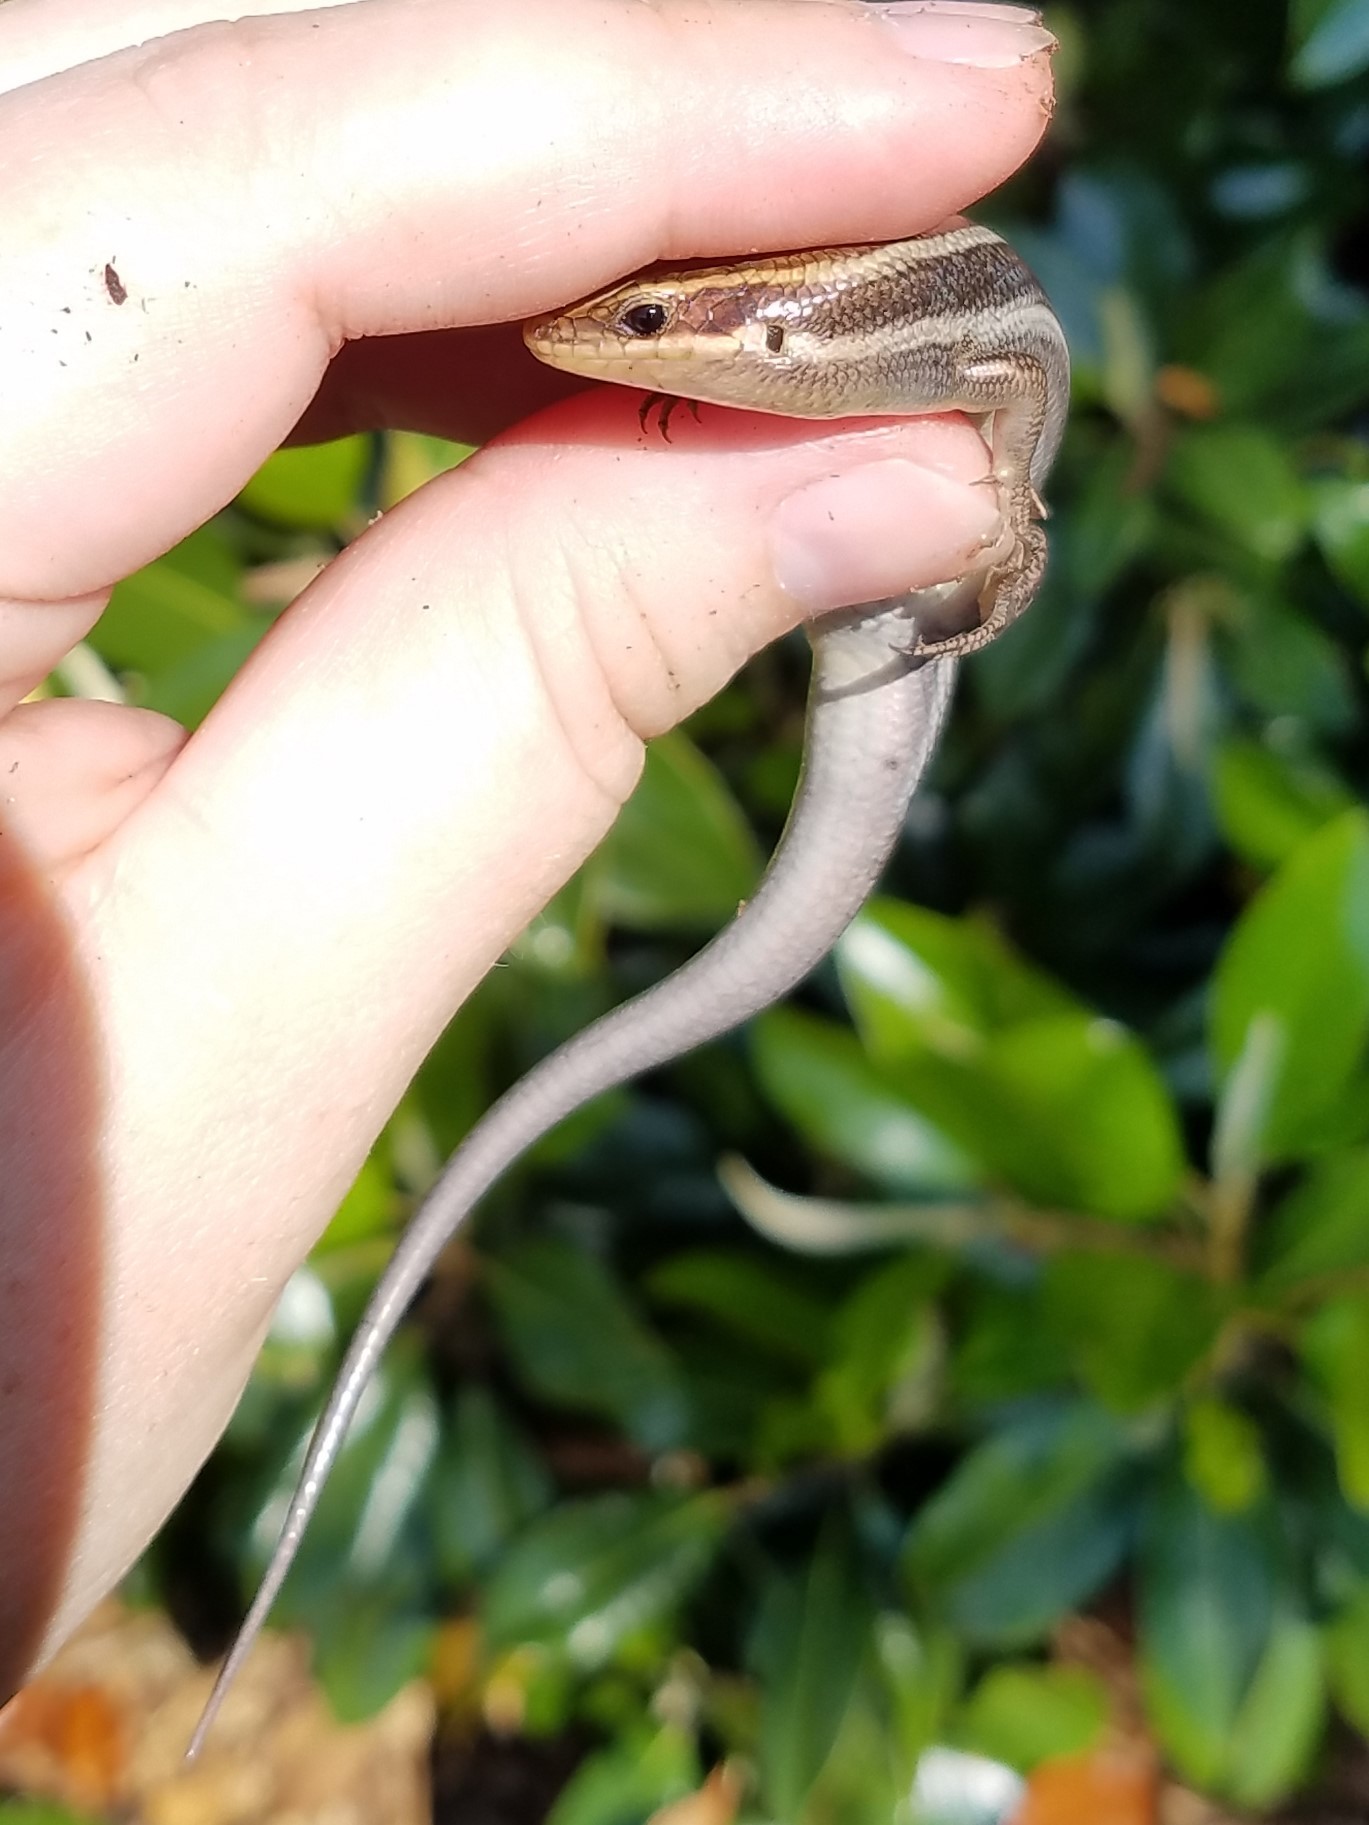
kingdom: Animalia
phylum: Chordata
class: Squamata
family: Scincidae
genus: Plestiodon
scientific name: Plestiodon fasciatus
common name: Five-lined skink
